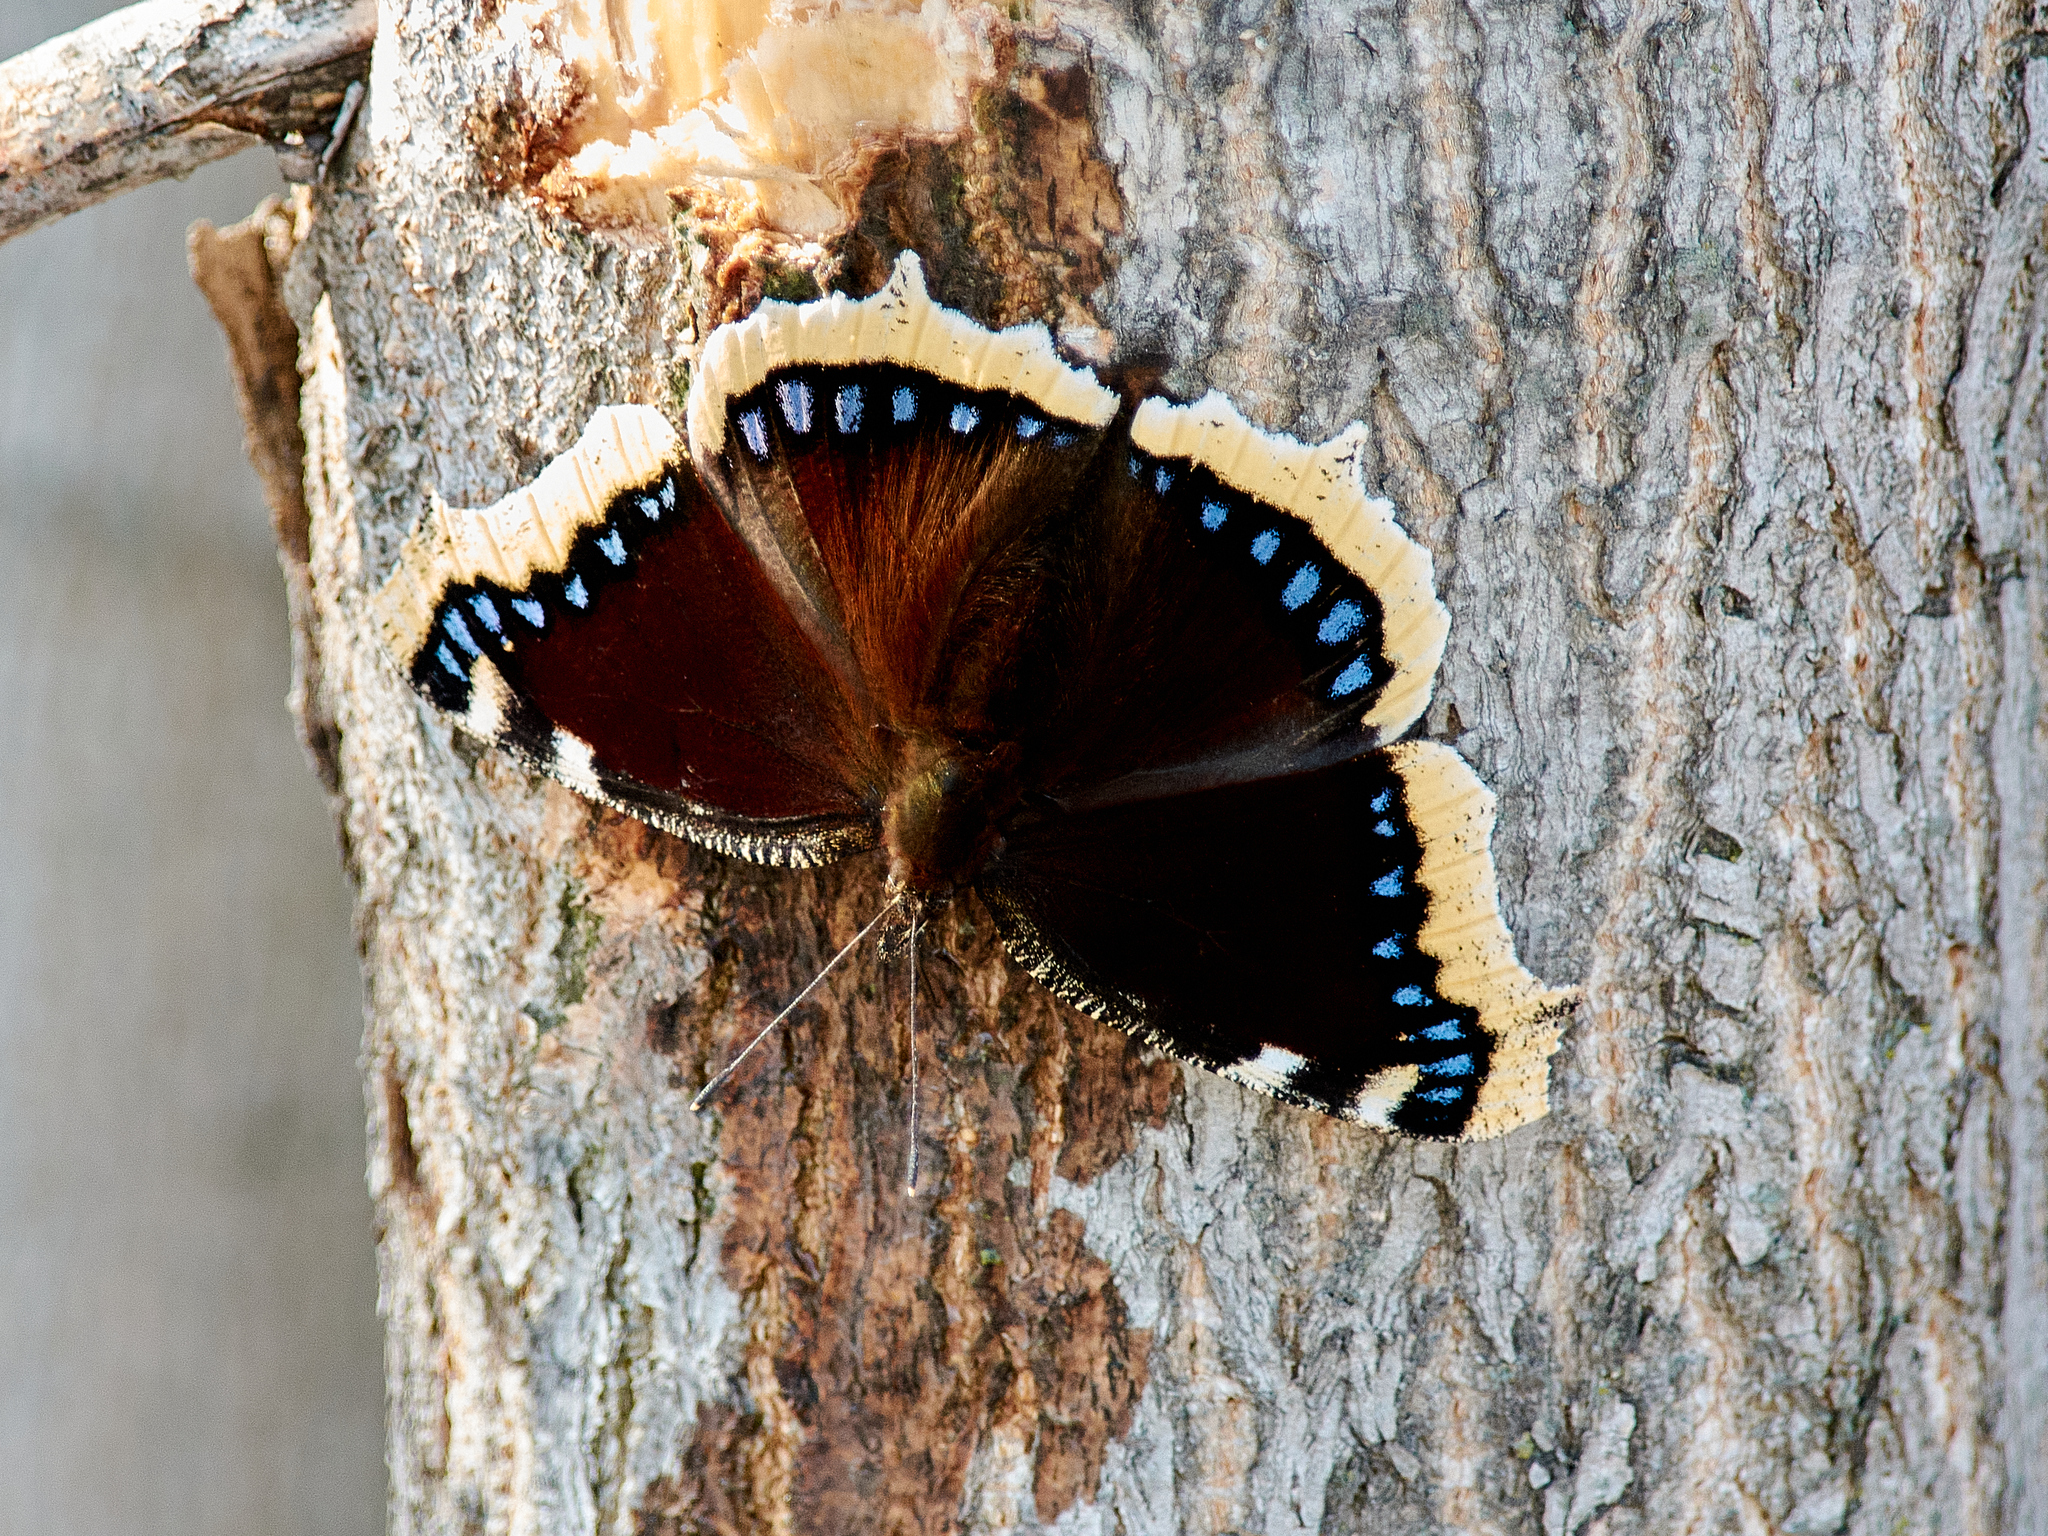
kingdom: Animalia
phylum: Arthropoda
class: Insecta
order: Lepidoptera
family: Nymphalidae
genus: Nymphalis
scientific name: Nymphalis antiopa
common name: Camberwell beauty
